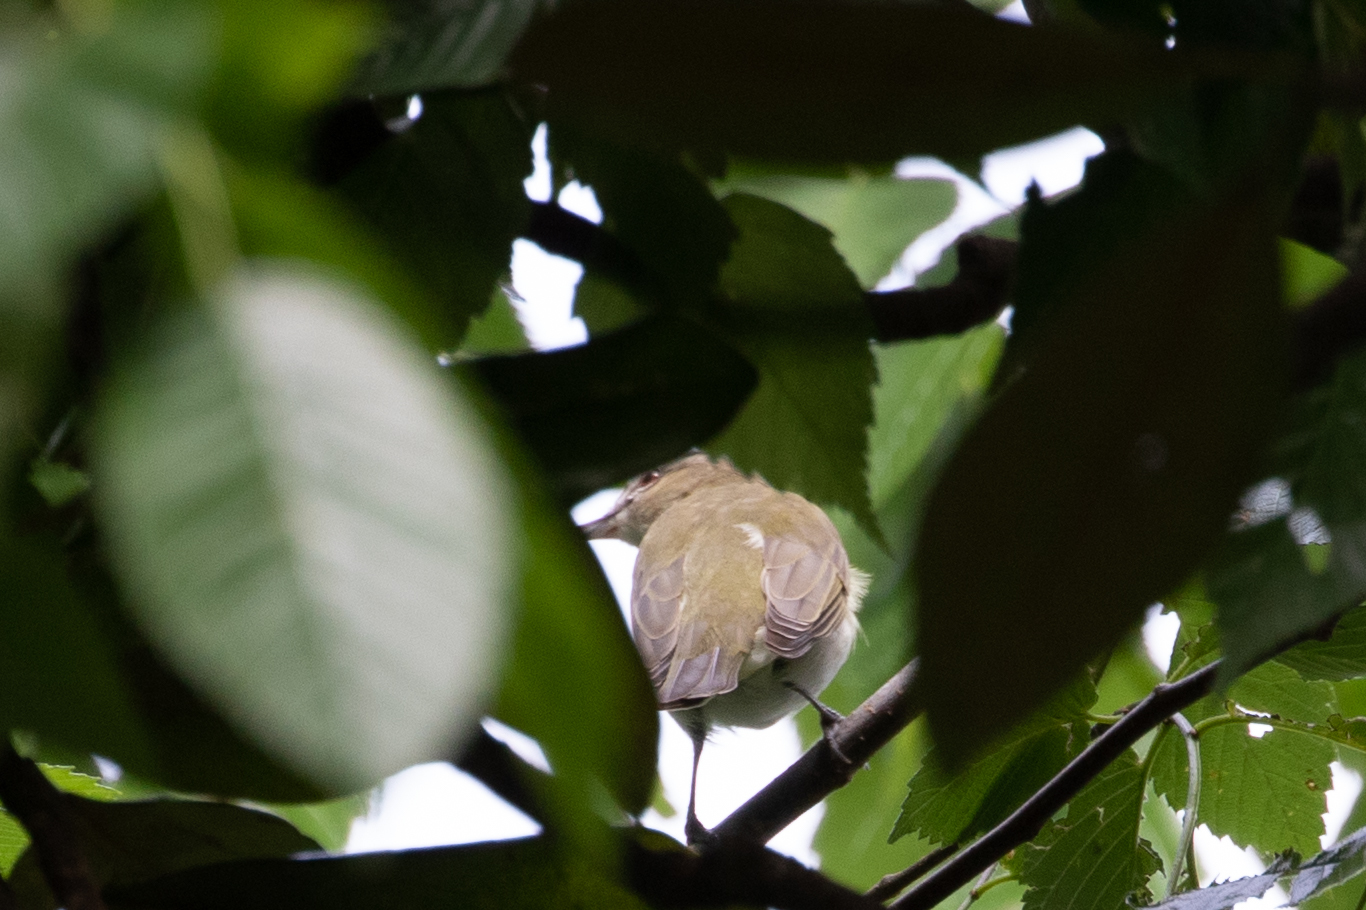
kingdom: Animalia
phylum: Chordata
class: Aves
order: Passeriformes
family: Vireonidae
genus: Vireo
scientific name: Vireo olivaceus
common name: Red-eyed vireo
